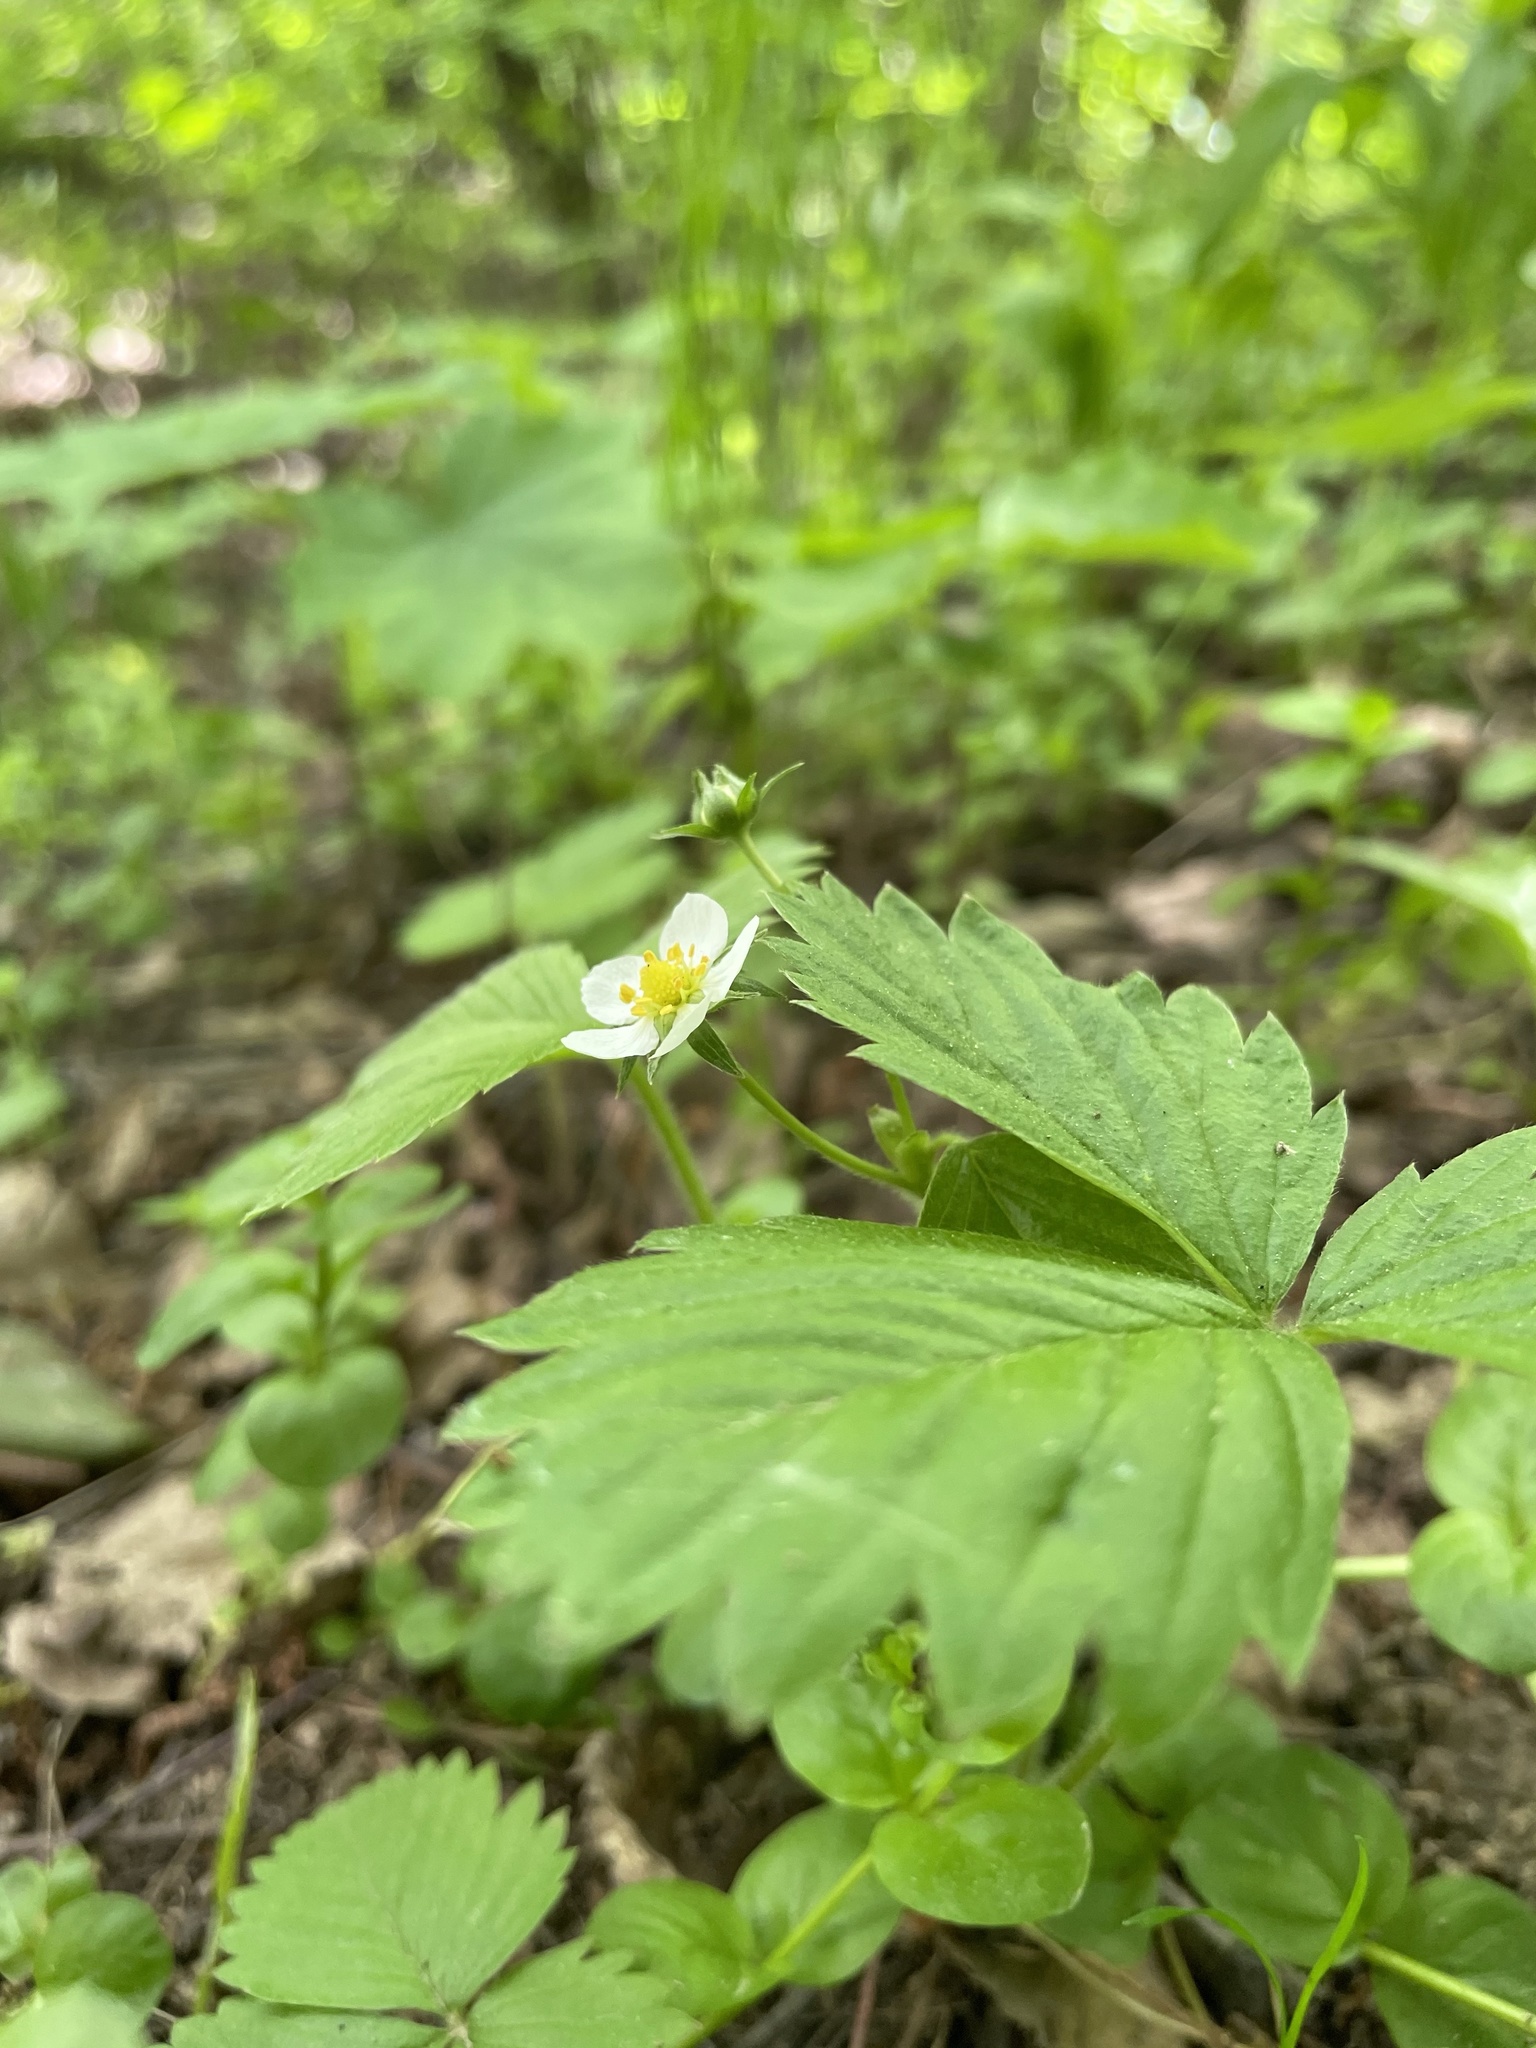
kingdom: Plantae
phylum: Tracheophyta
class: Magnoliopsida
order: Rosales
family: Rosaceae
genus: Fragaria
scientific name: Fragaria vesca
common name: Wild strawberry
